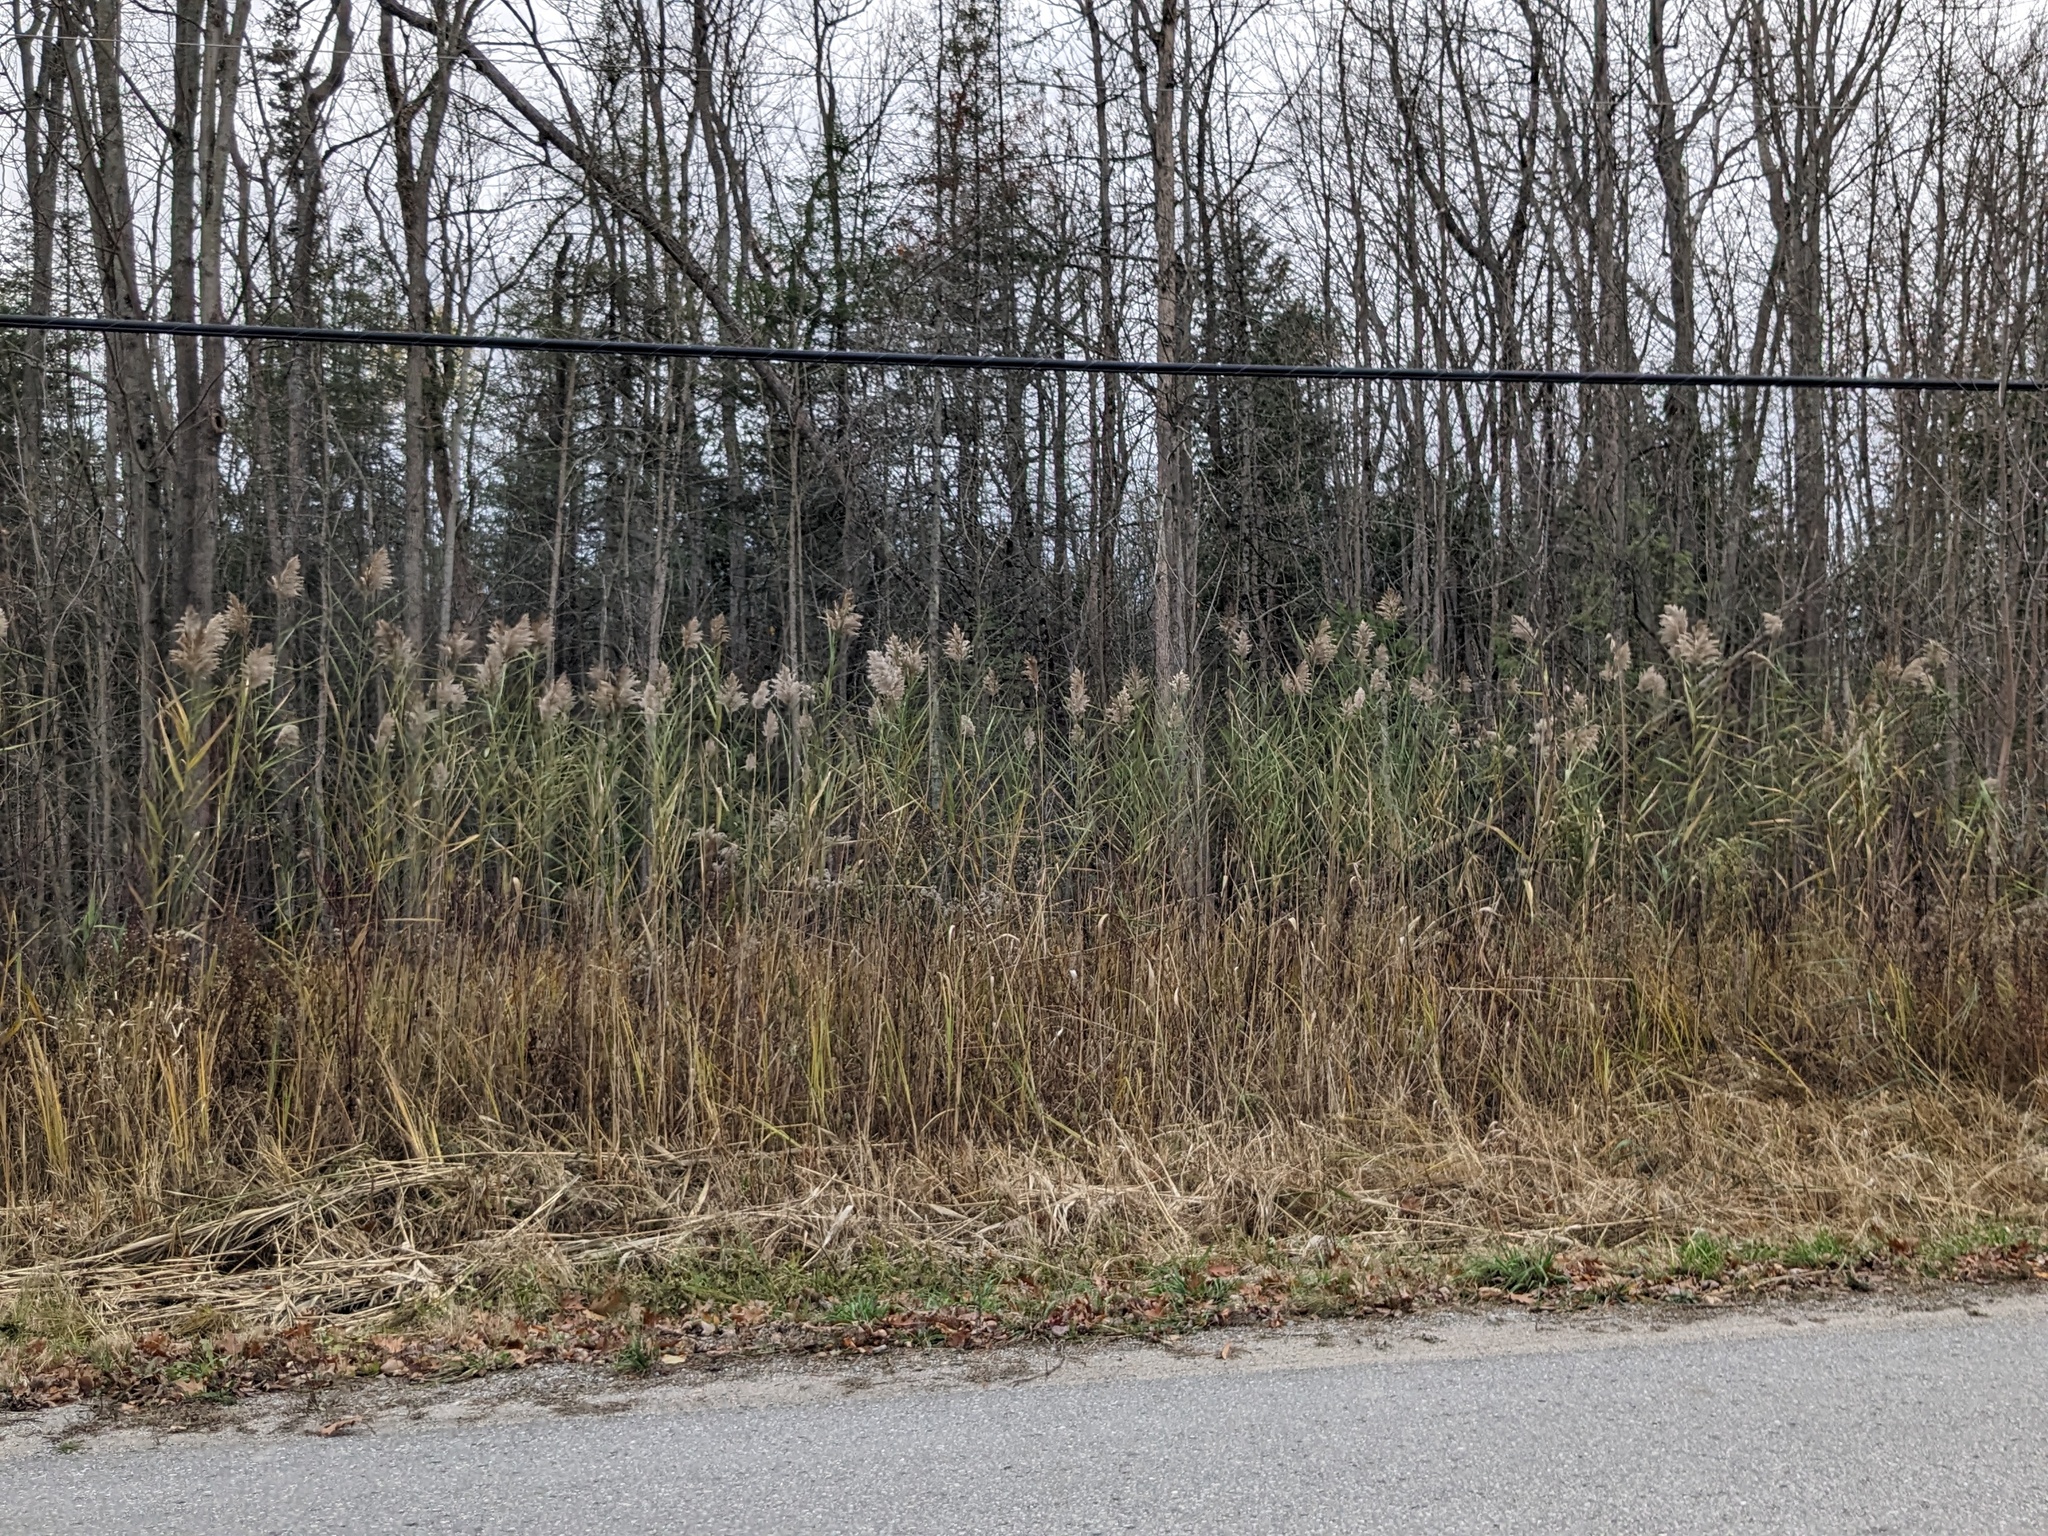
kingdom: Plantae
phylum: Tracheophyta
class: Liliopsida
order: Poales
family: Poaceae
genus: Phragmites
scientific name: Phragmites australis
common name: Common reed
